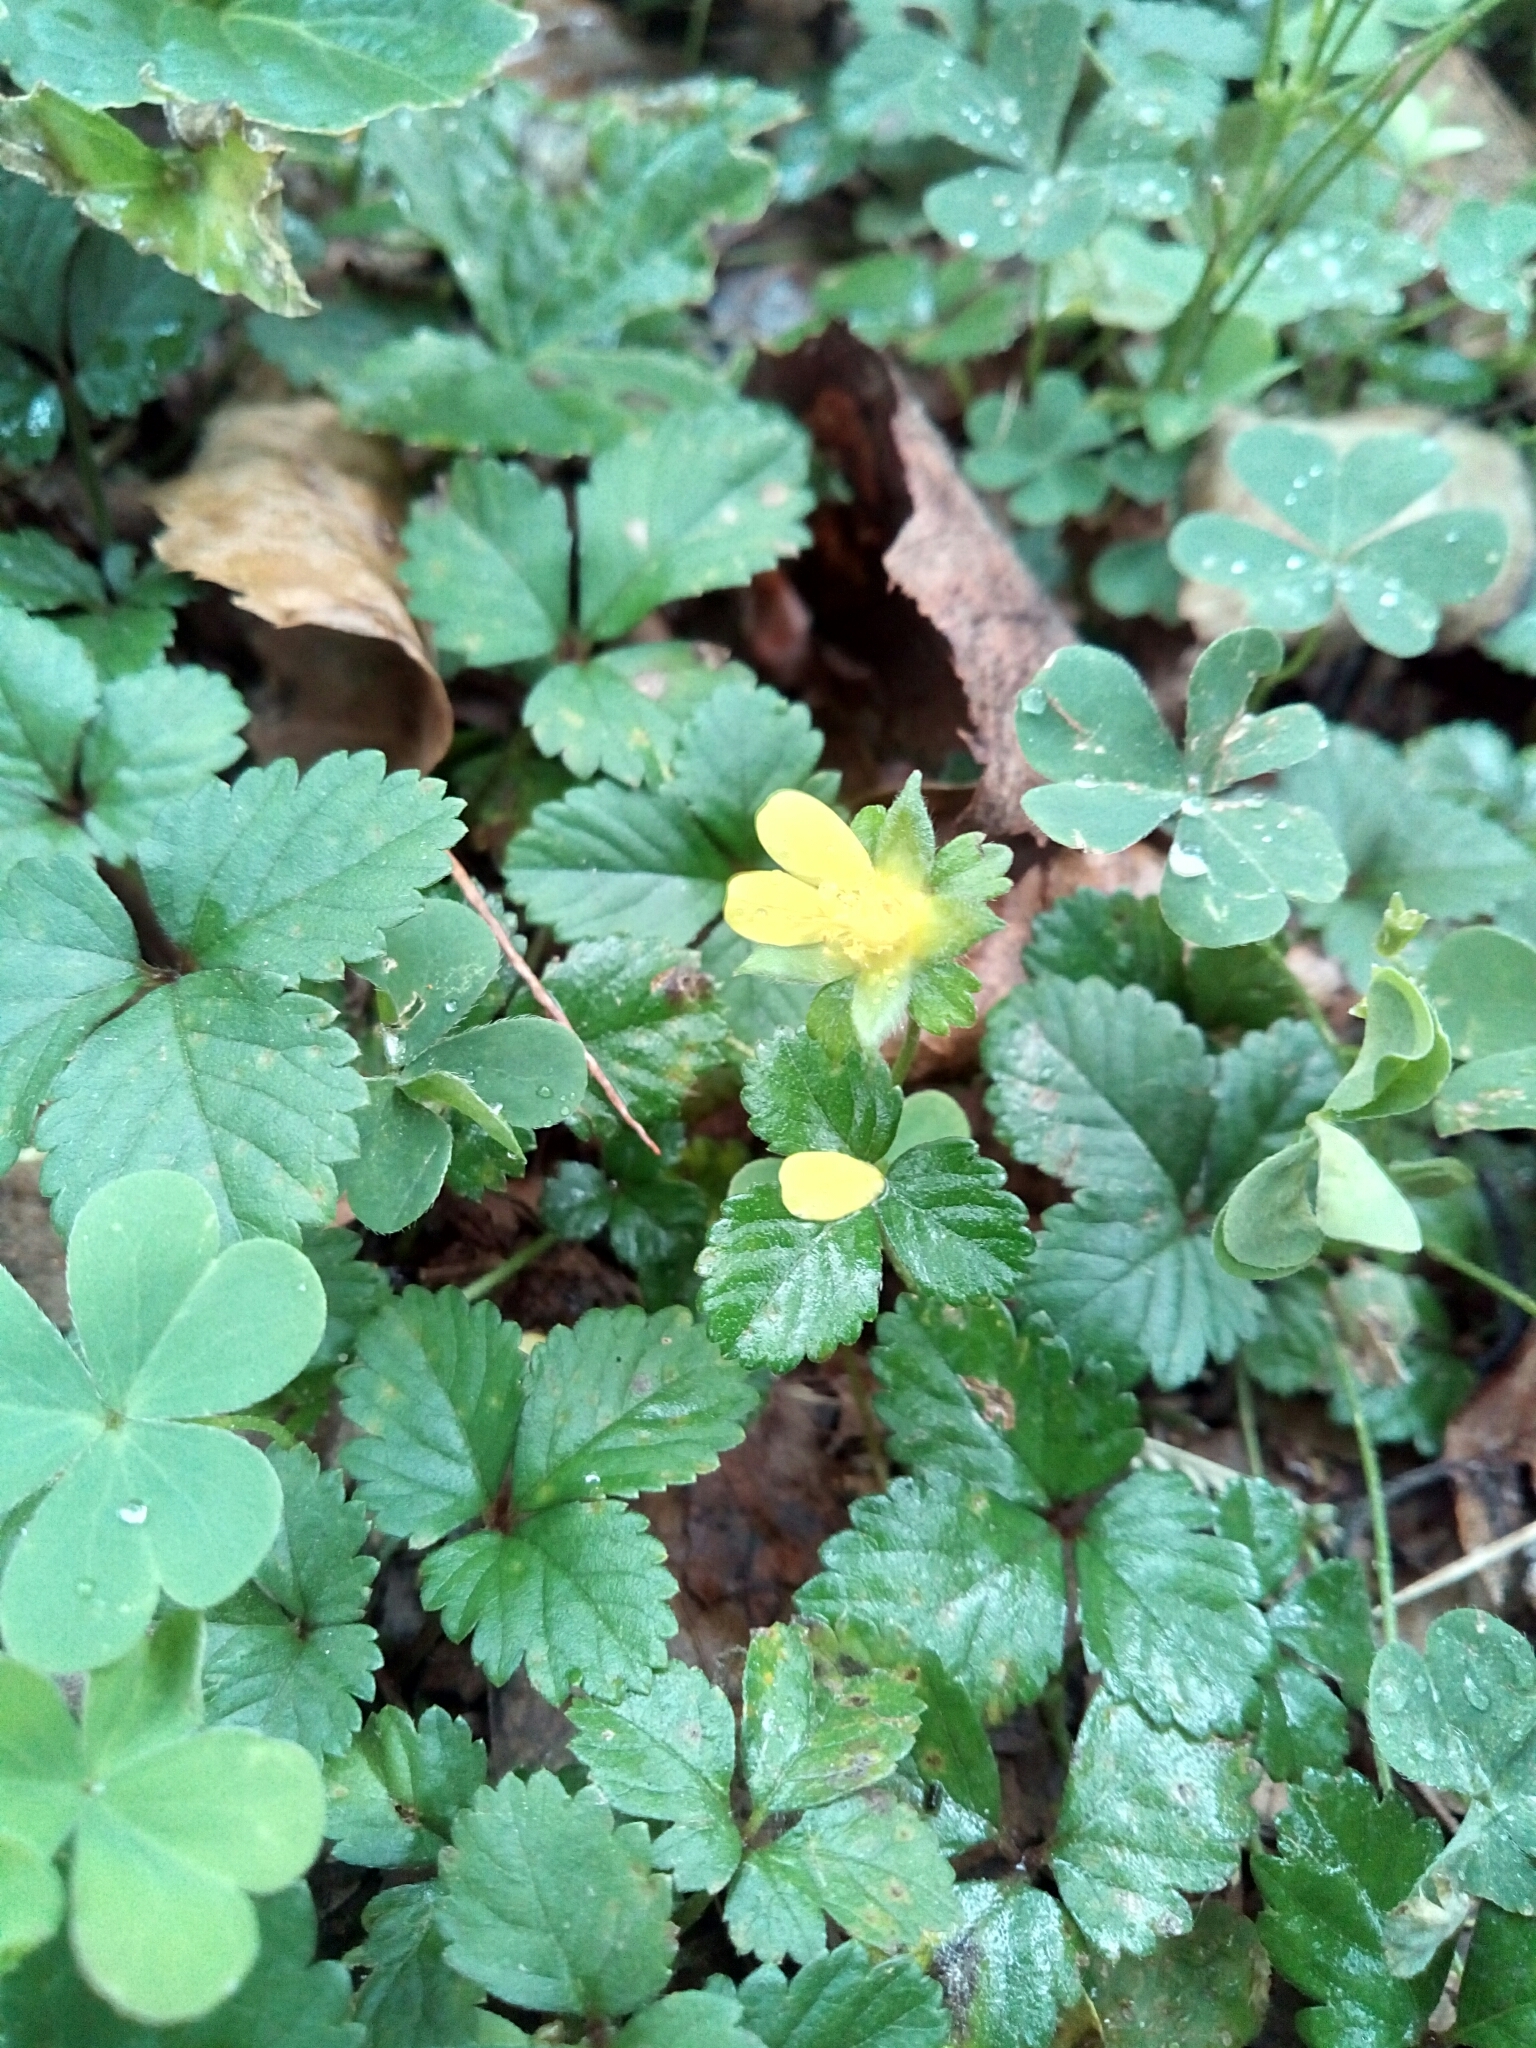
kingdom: Plantae
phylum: Tracheophyta
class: Magnoliopsida
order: Rosales
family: Rosaceae
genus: Potentilla
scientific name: Potentilla indica
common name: Yellow-flowered strawberry
